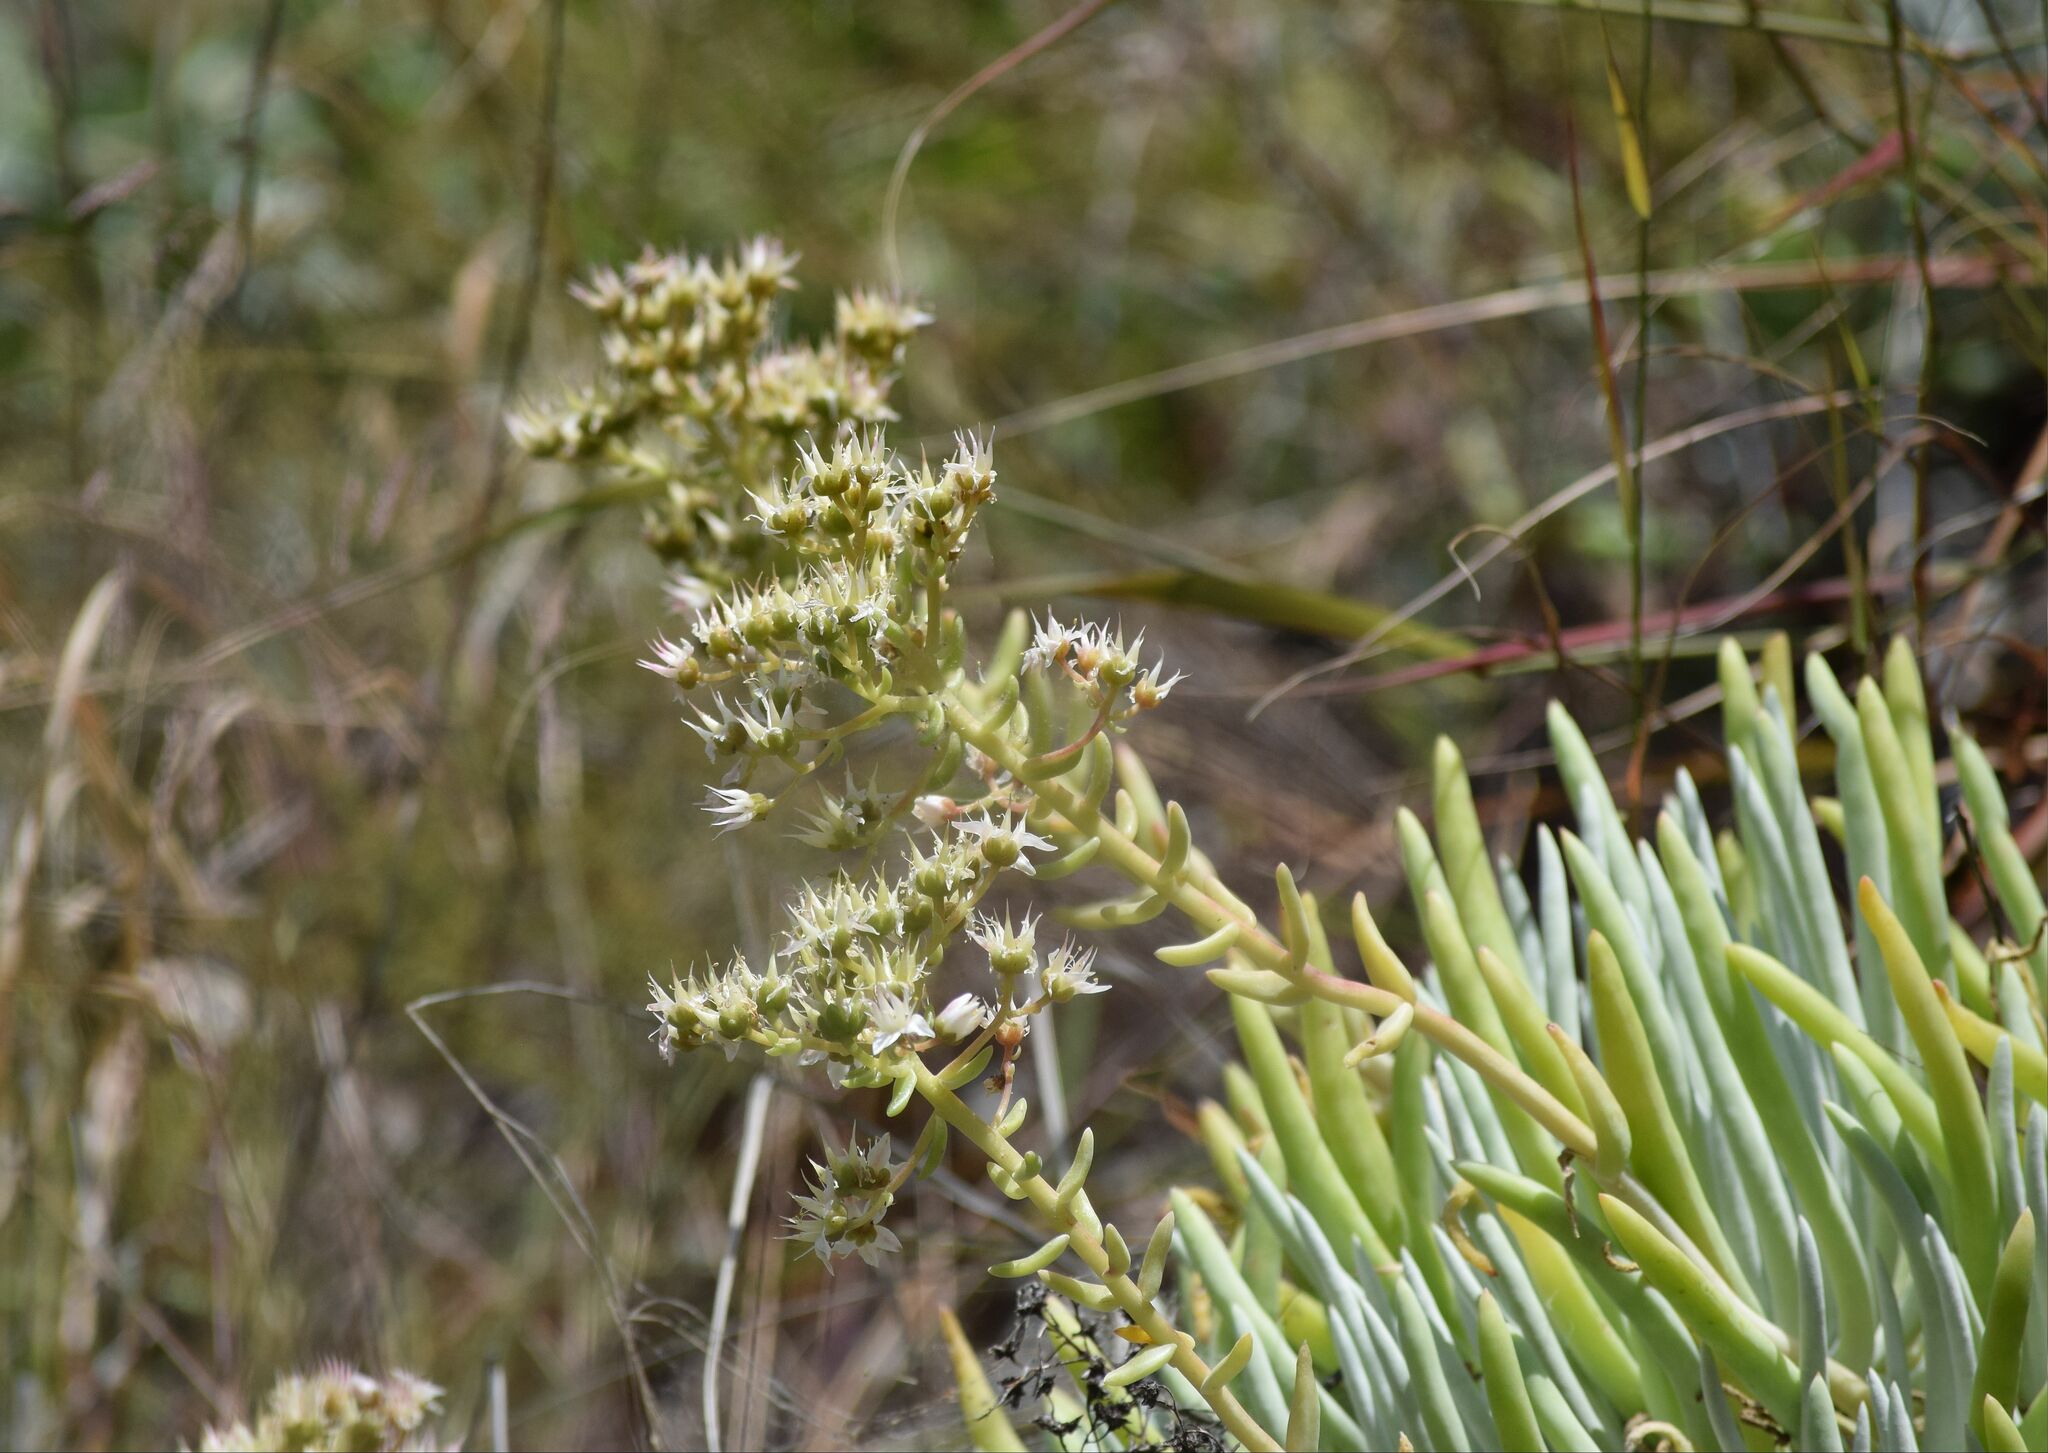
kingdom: Plantae
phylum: Tracheophyta
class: Magnoliopsida
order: Saxifragales
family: Crassulaceae
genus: Dudleya
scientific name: Dudleya densiflora
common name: San gabriel mountains dudleya
